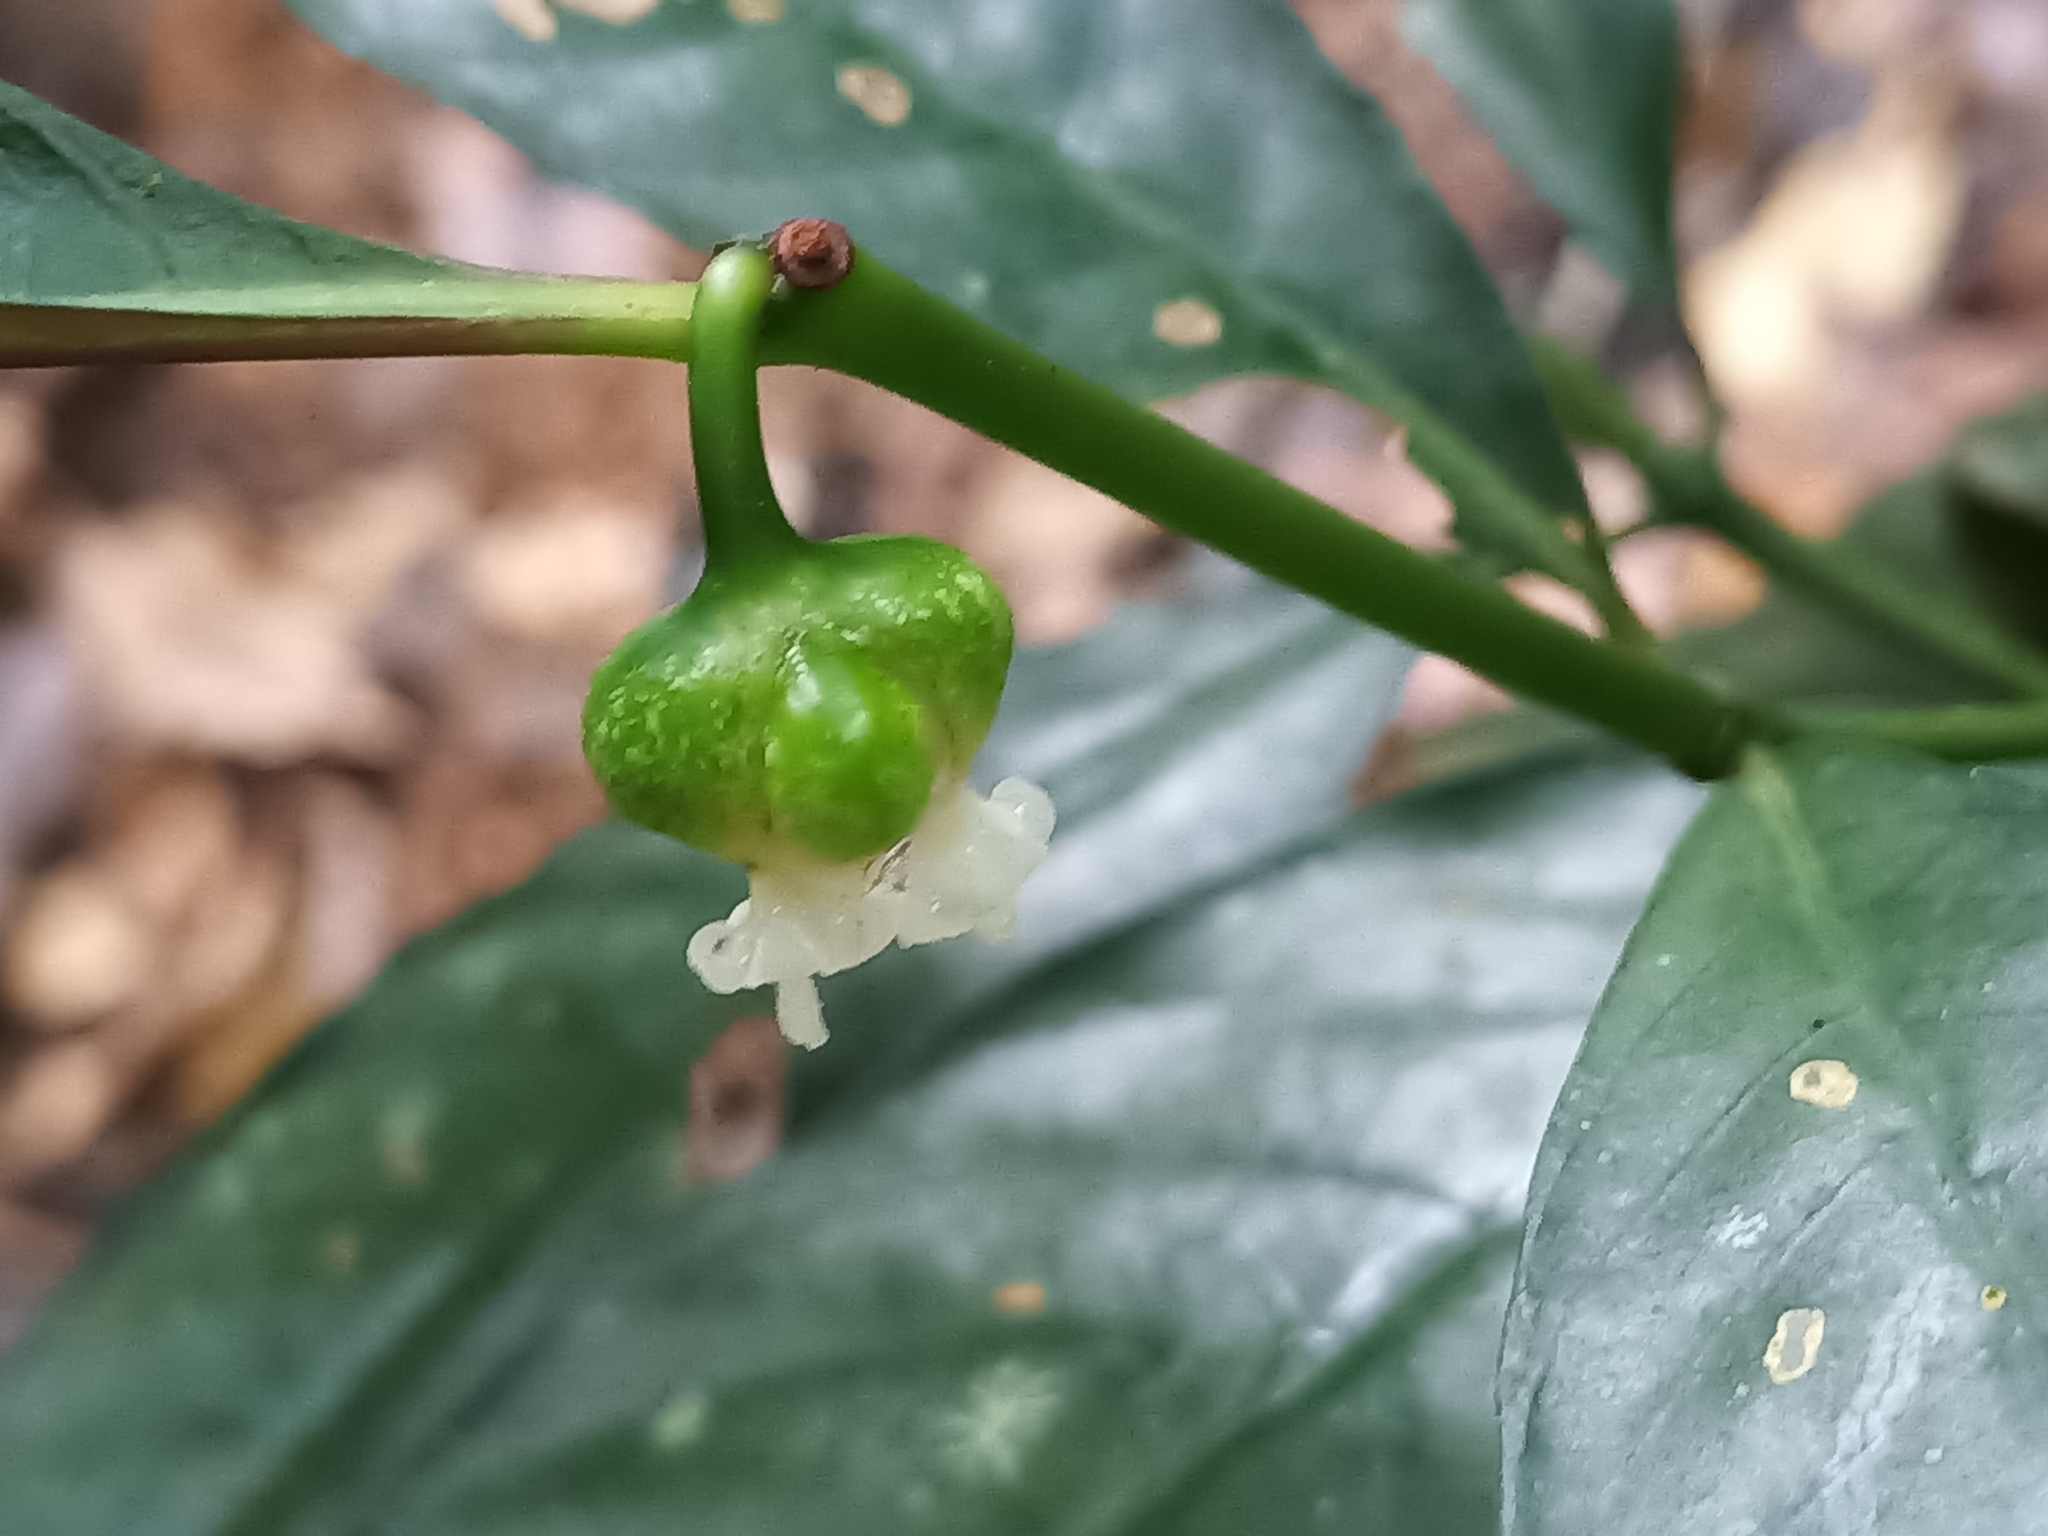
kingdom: Plantae
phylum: Tracheophyta
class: Magnoliopsida
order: Gentianales
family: Rubiaceae
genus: Palicourea
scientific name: Palicourea dichotoma
